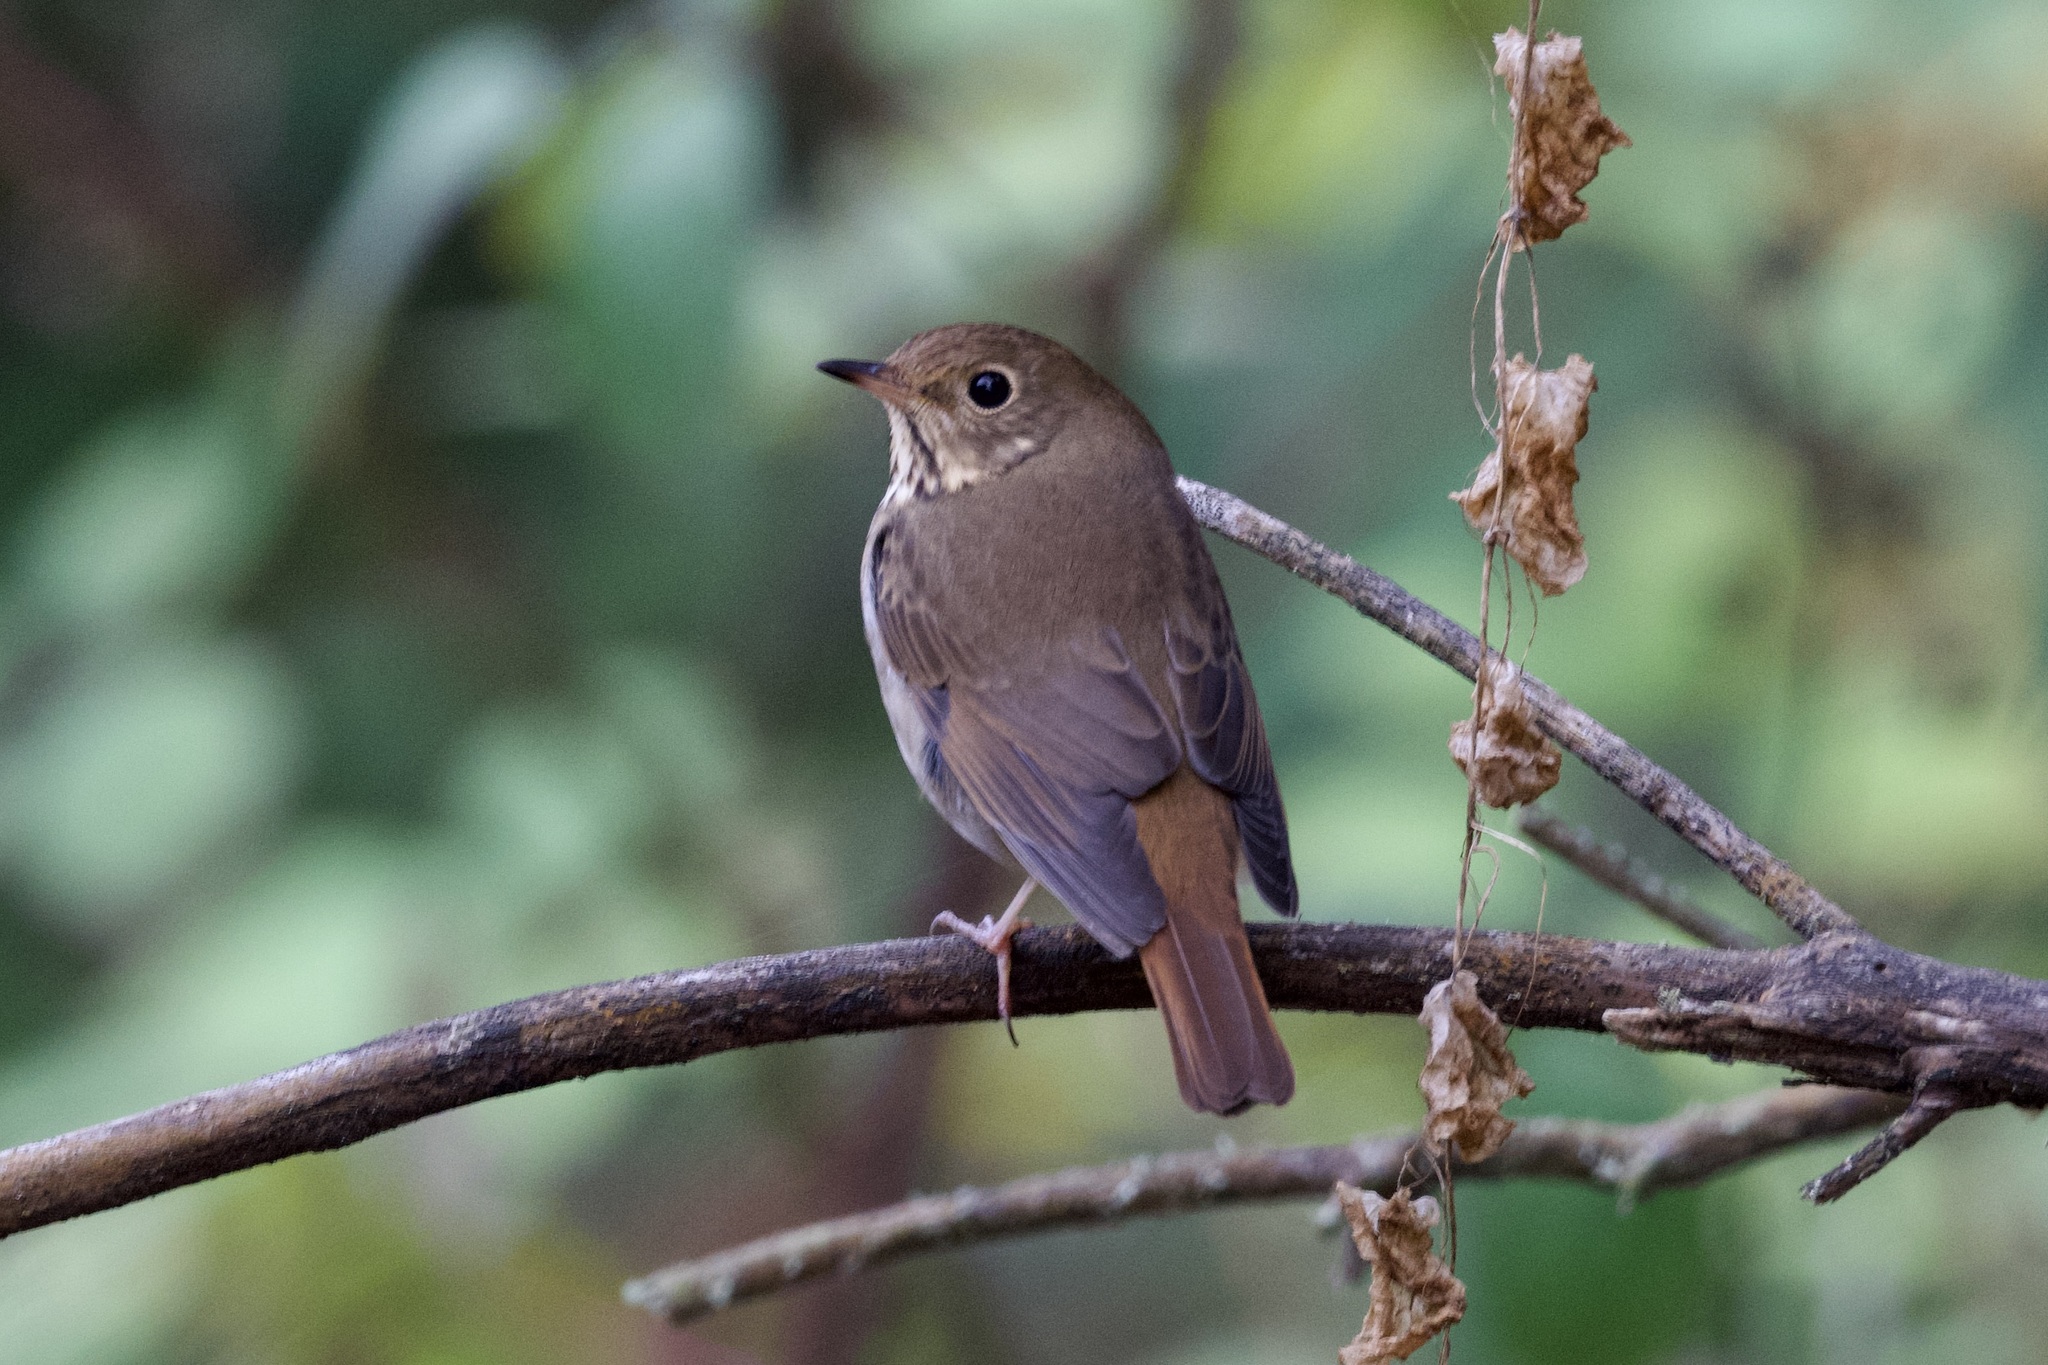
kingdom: Animalia
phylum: Chordata
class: Aves
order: Passeriformes
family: Turdidae
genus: Catharus
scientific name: Catharus guttatus
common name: Hermit thrush
